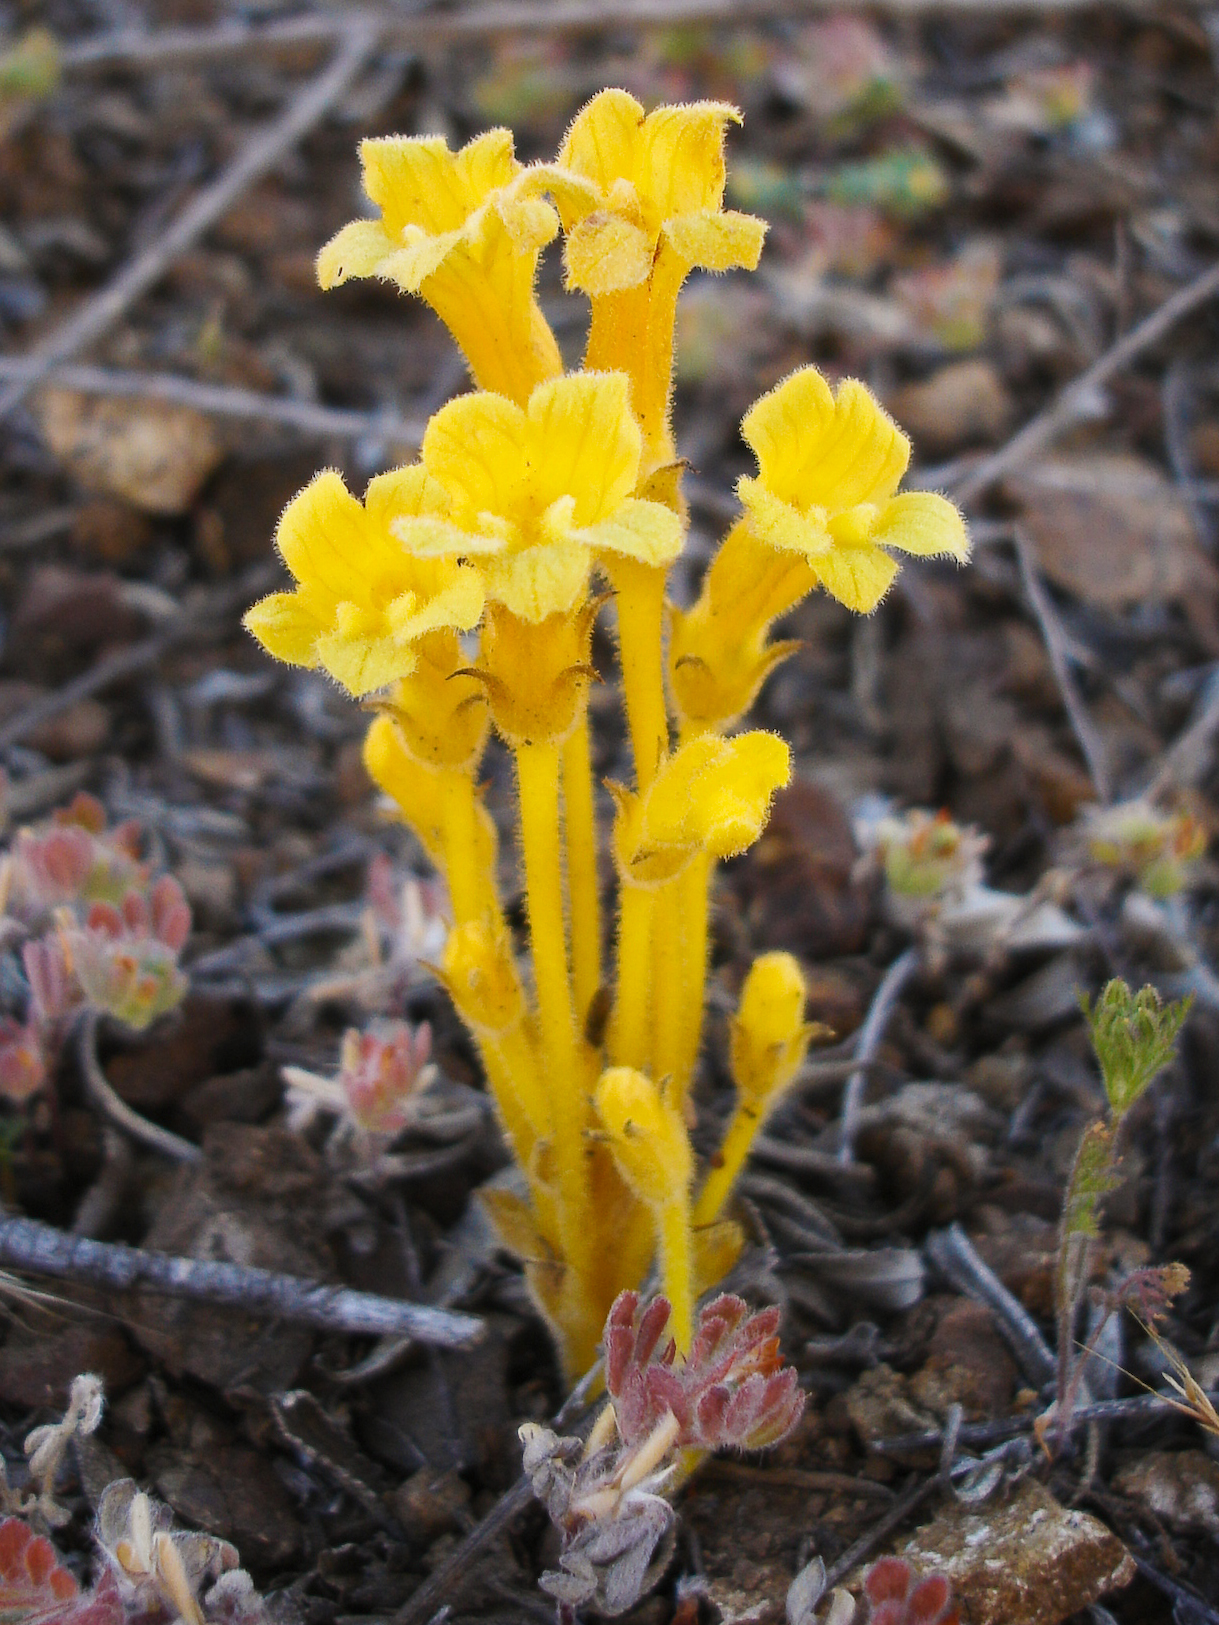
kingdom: Plantae
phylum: Tracheophyta
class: Magnoliopsida
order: Lamiales
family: Orobanchaceae
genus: Aphyllon
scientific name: Aphyllon franciscanum
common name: San francisco broomrape
